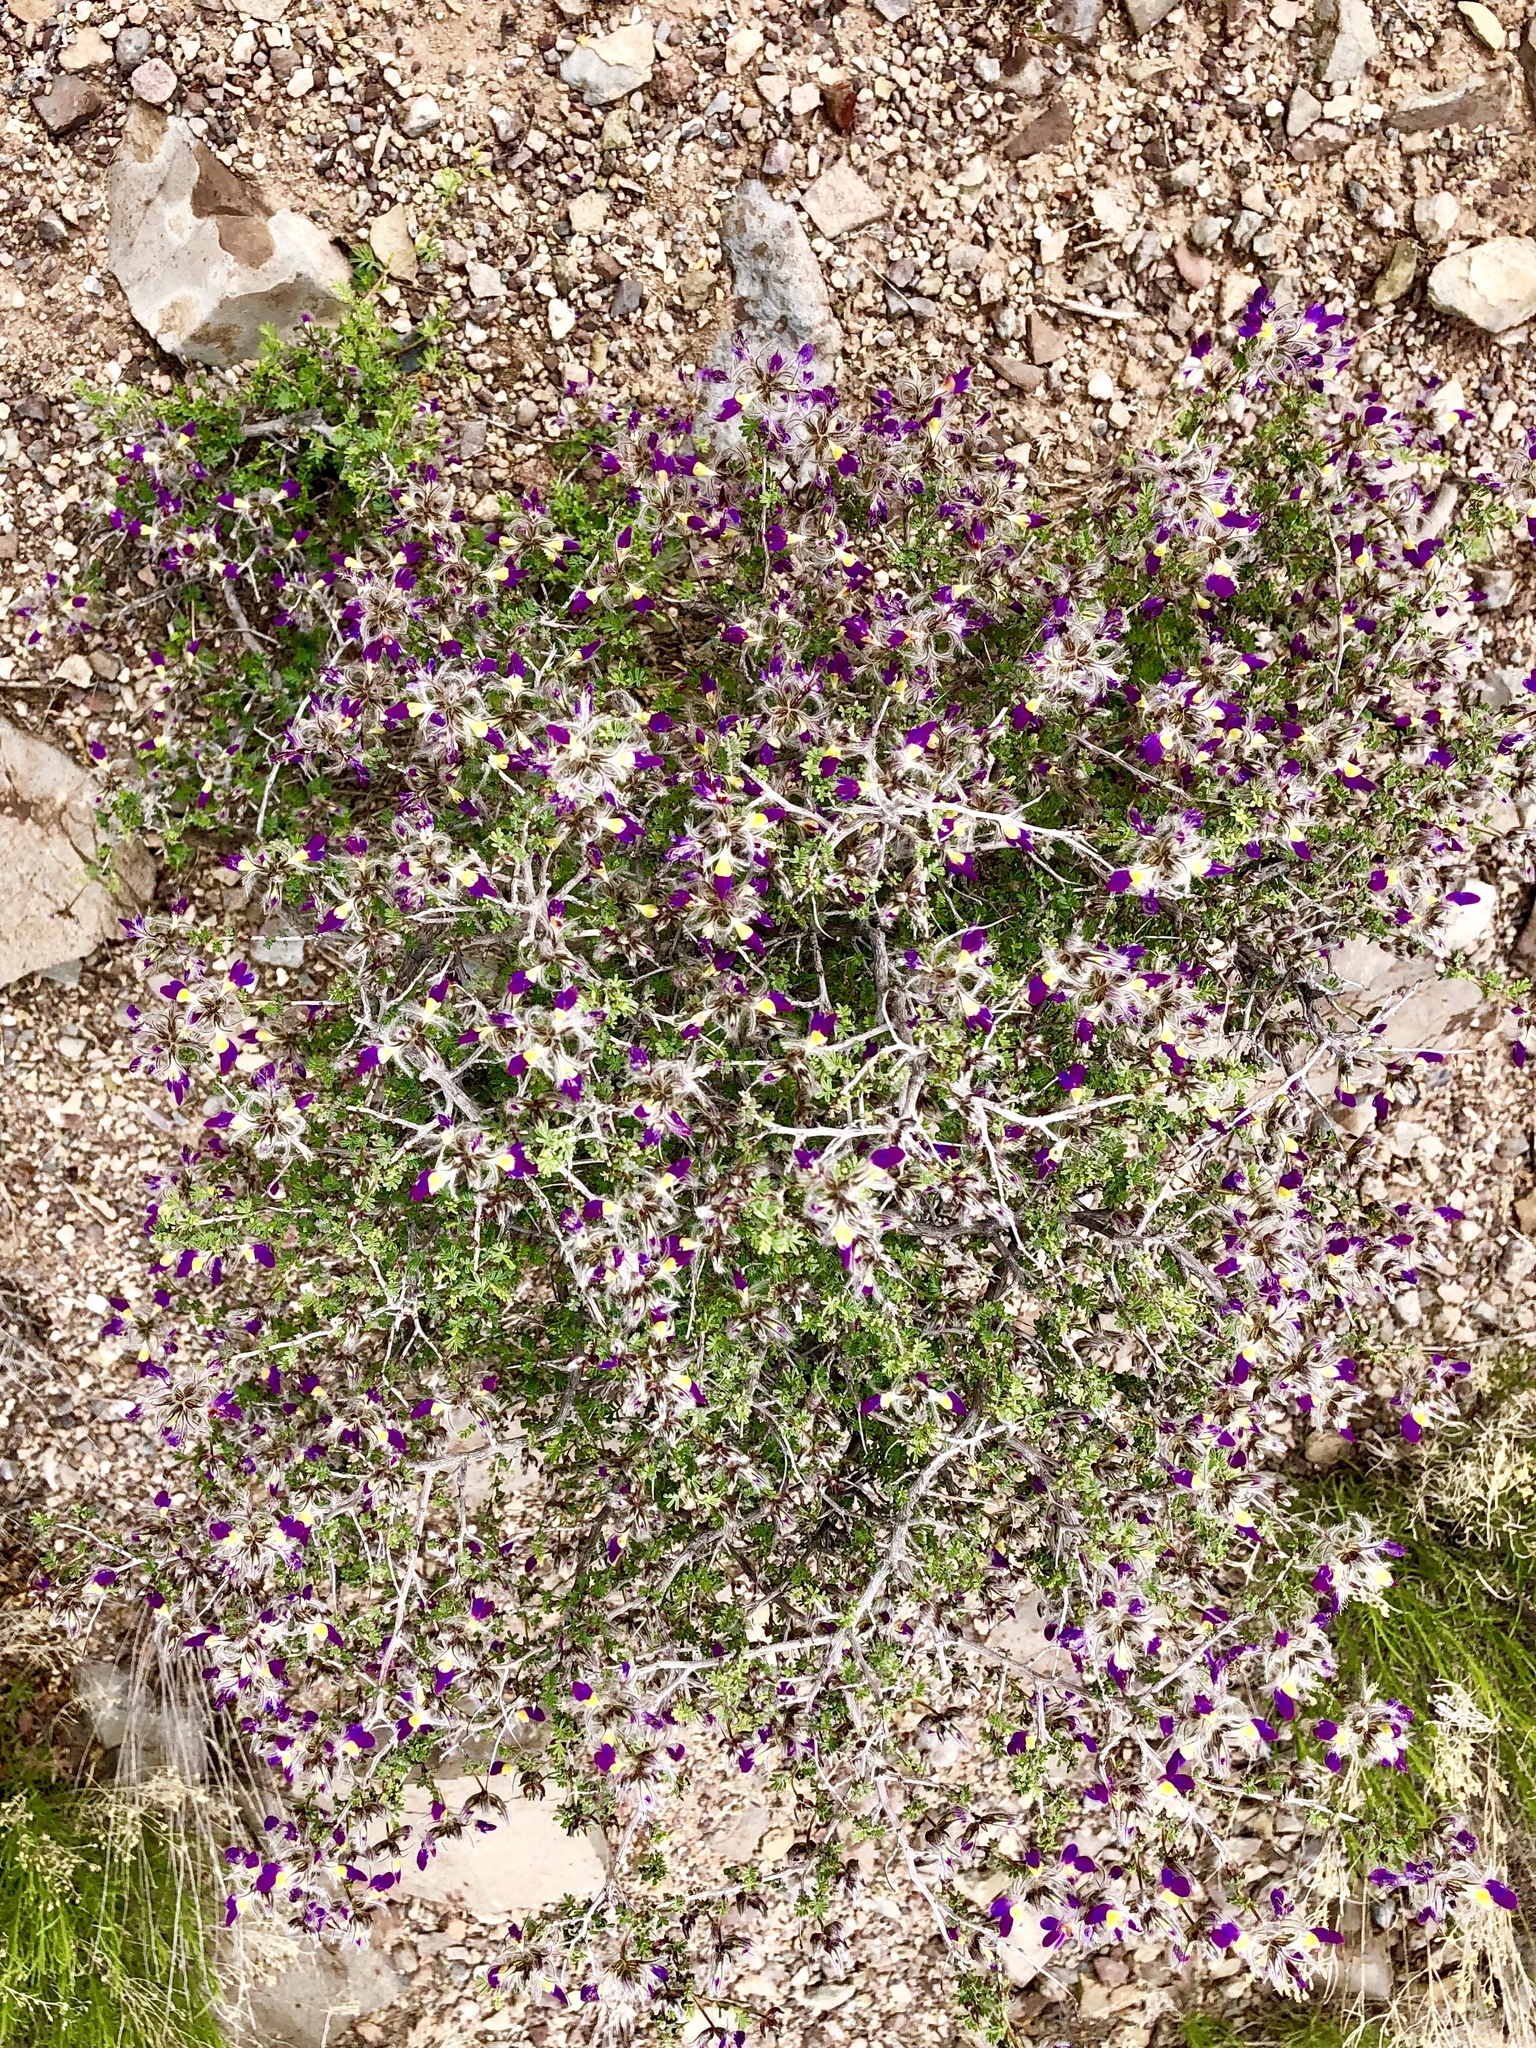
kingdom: Plantae
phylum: Tracheophyta
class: Magnoliopsida
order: Fabales
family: Fabaceae
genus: Dalea
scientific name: Dalea formosa
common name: Feather-plume dalea
